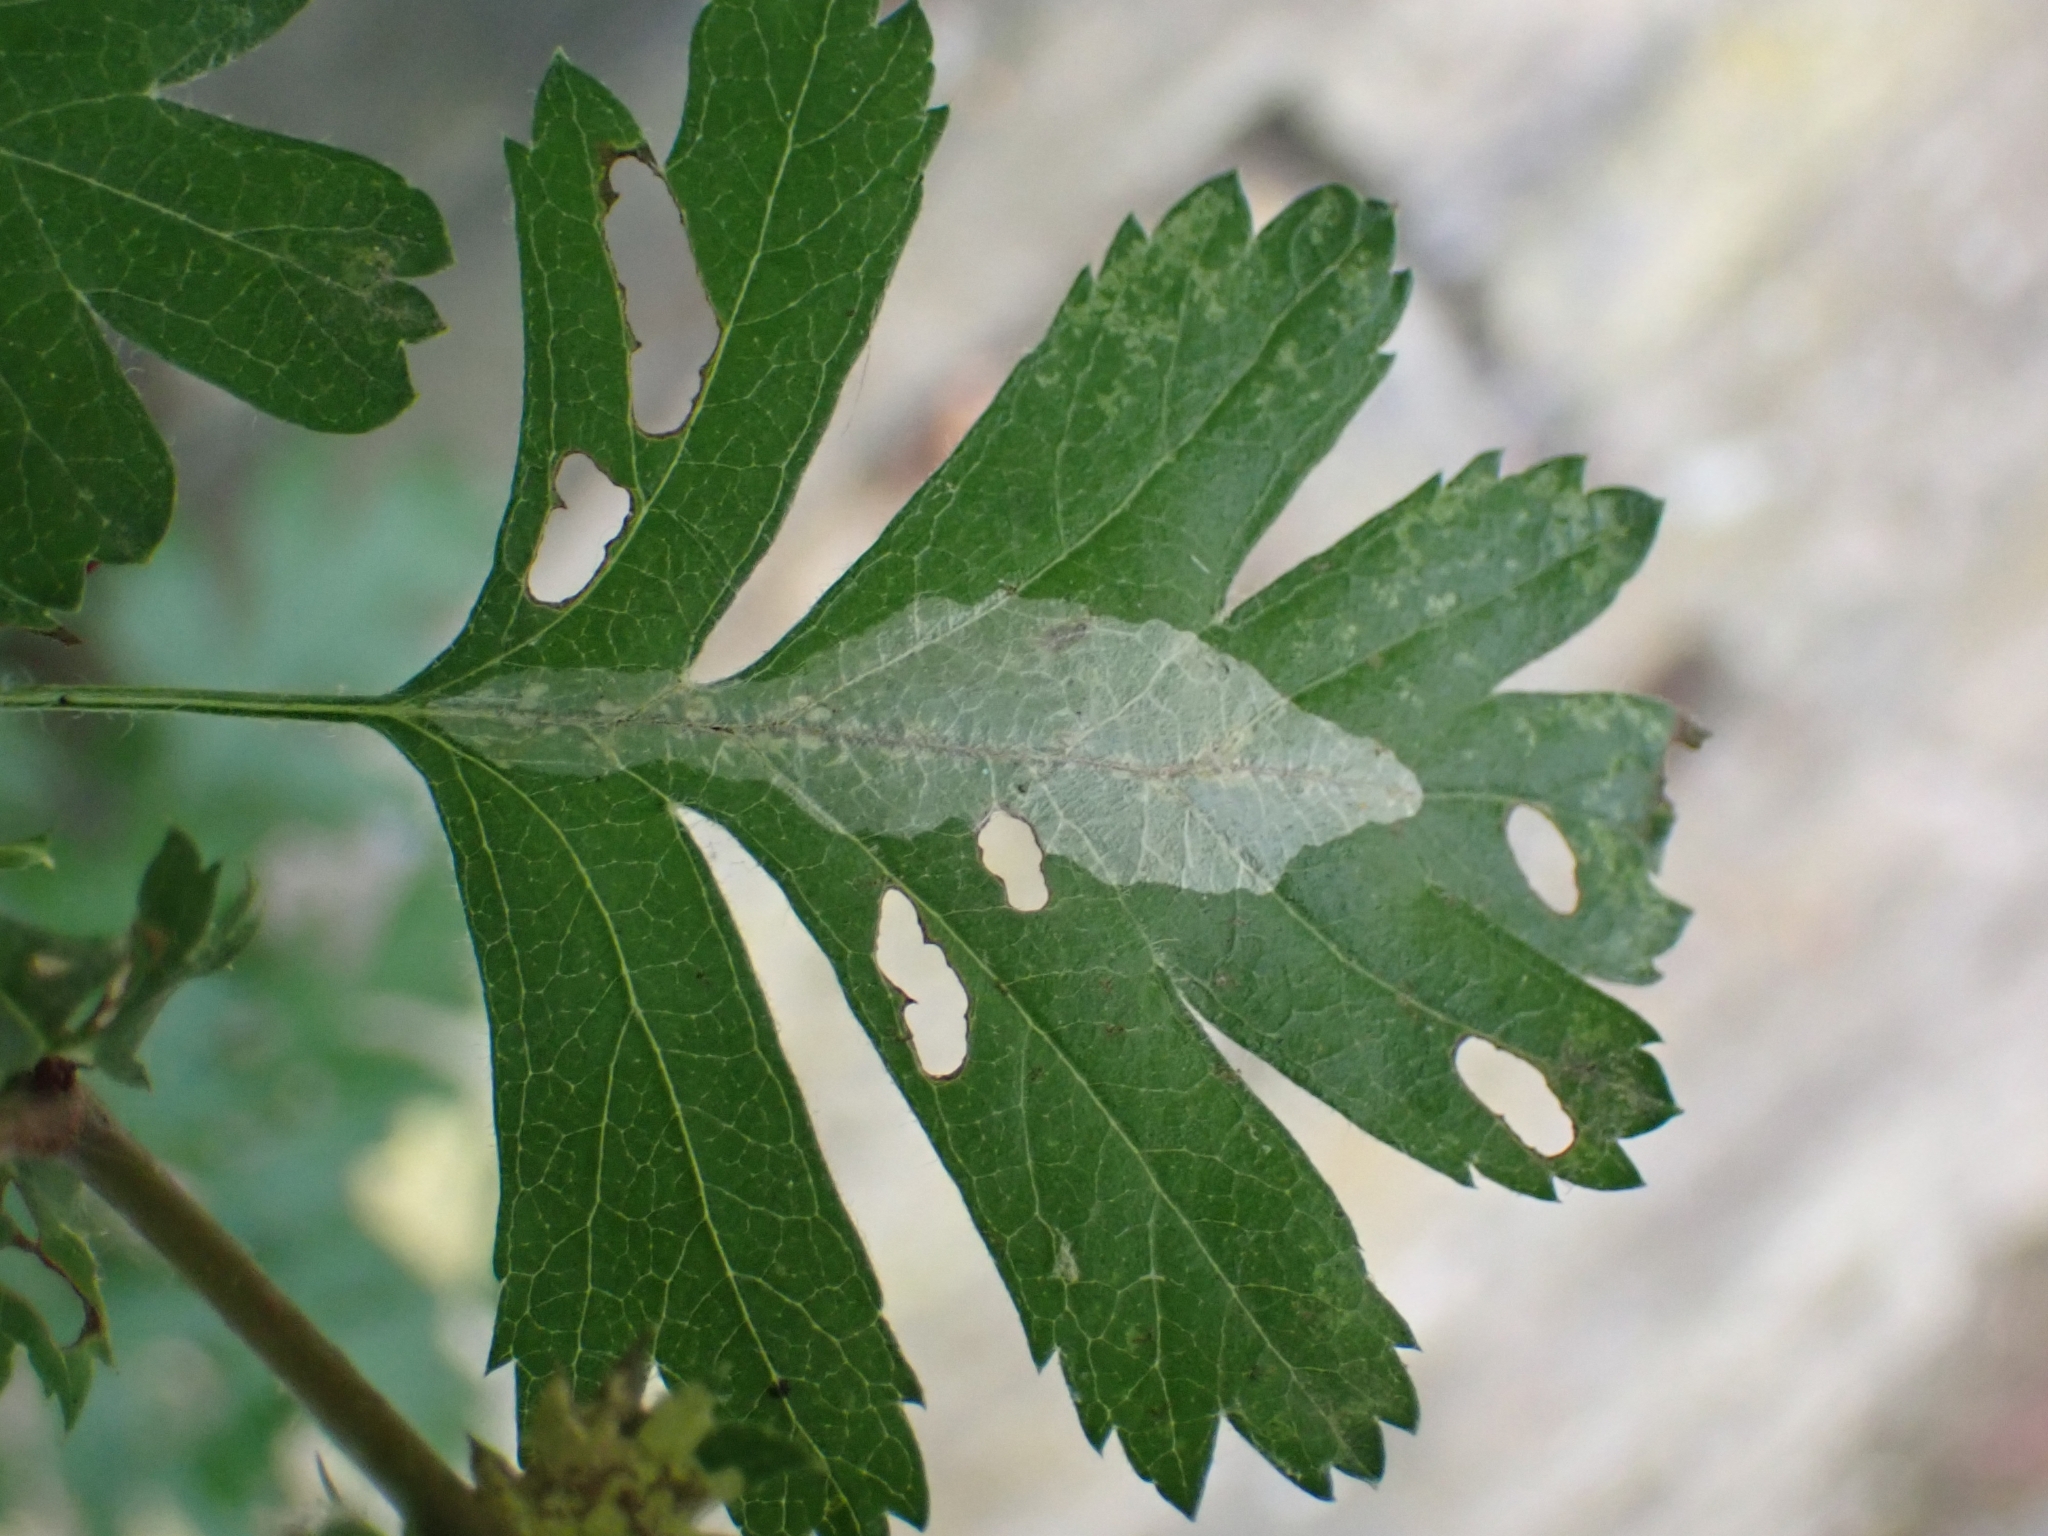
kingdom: Animalia
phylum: Arthropoda
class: Insecta
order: Lepidoptera
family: Gracillariidae
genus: Phyllonorycter
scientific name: Phyllonorycter leucographella
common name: Firethorn leaf-miner
